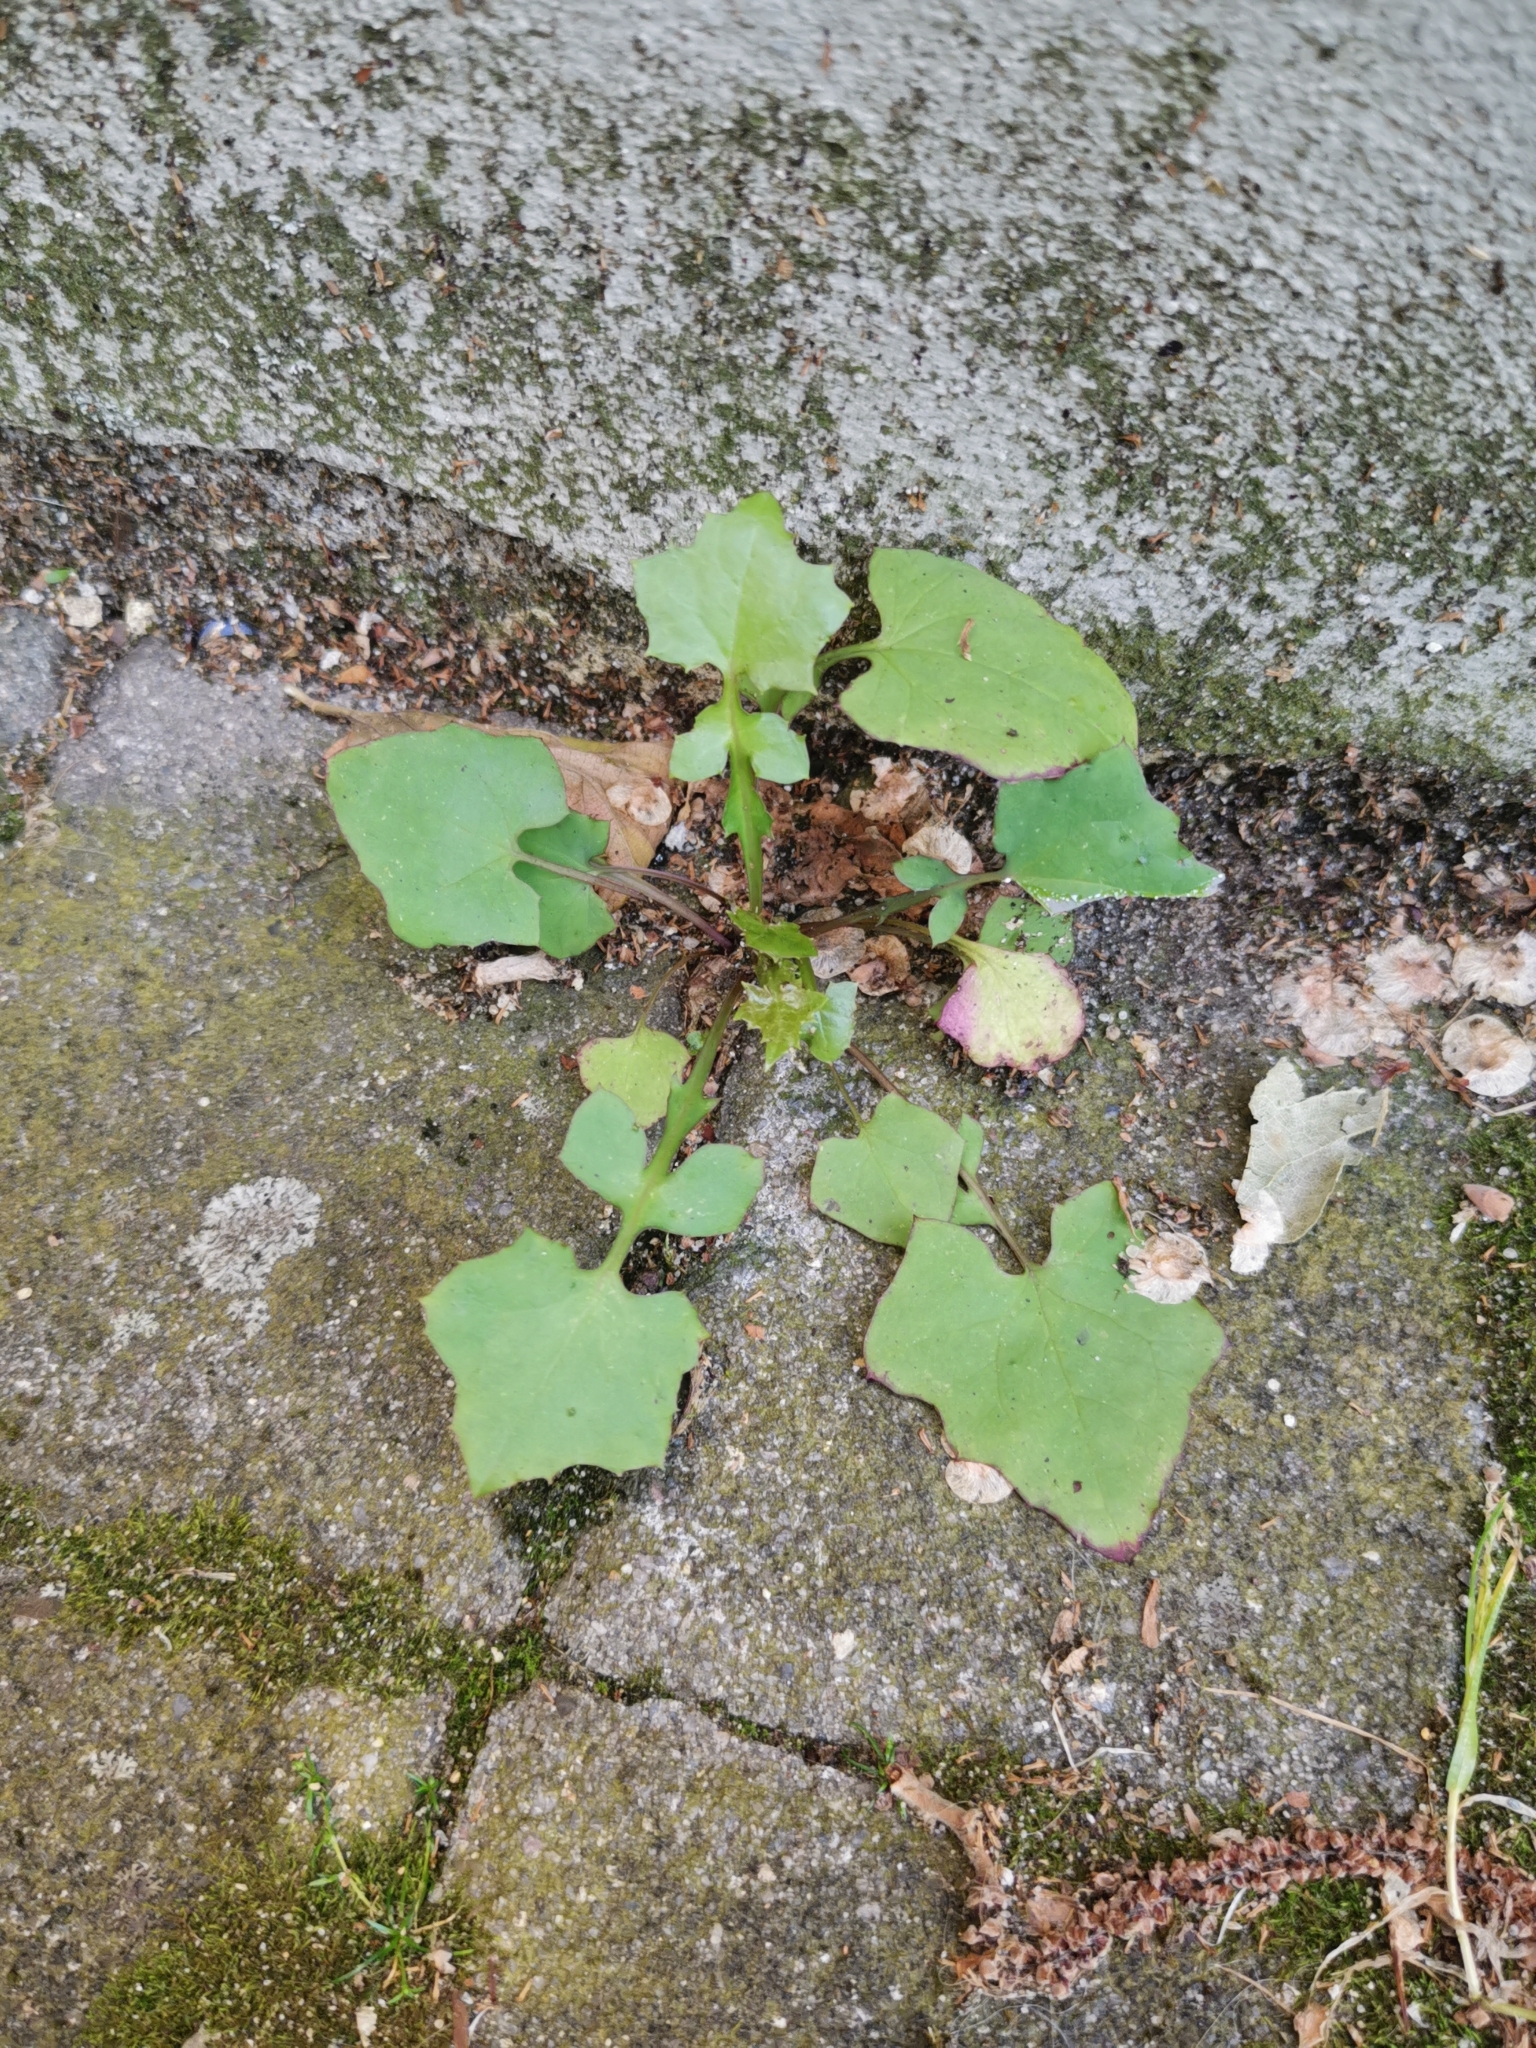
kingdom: Plantae
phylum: Tracheophyta
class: Magnoliopsida
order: Asterales
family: Asteraceae
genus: Mycelis
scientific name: Mycelis muralis
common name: Wall lettuce
